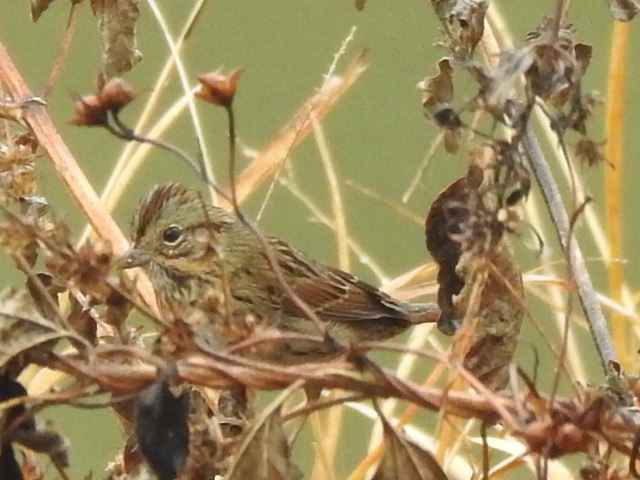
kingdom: Animalia
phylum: Chordata
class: Aves
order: Passeriformes
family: Passerellidae
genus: Melospiza
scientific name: Melospiza lincolnii
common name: Lincoln's sparrow
